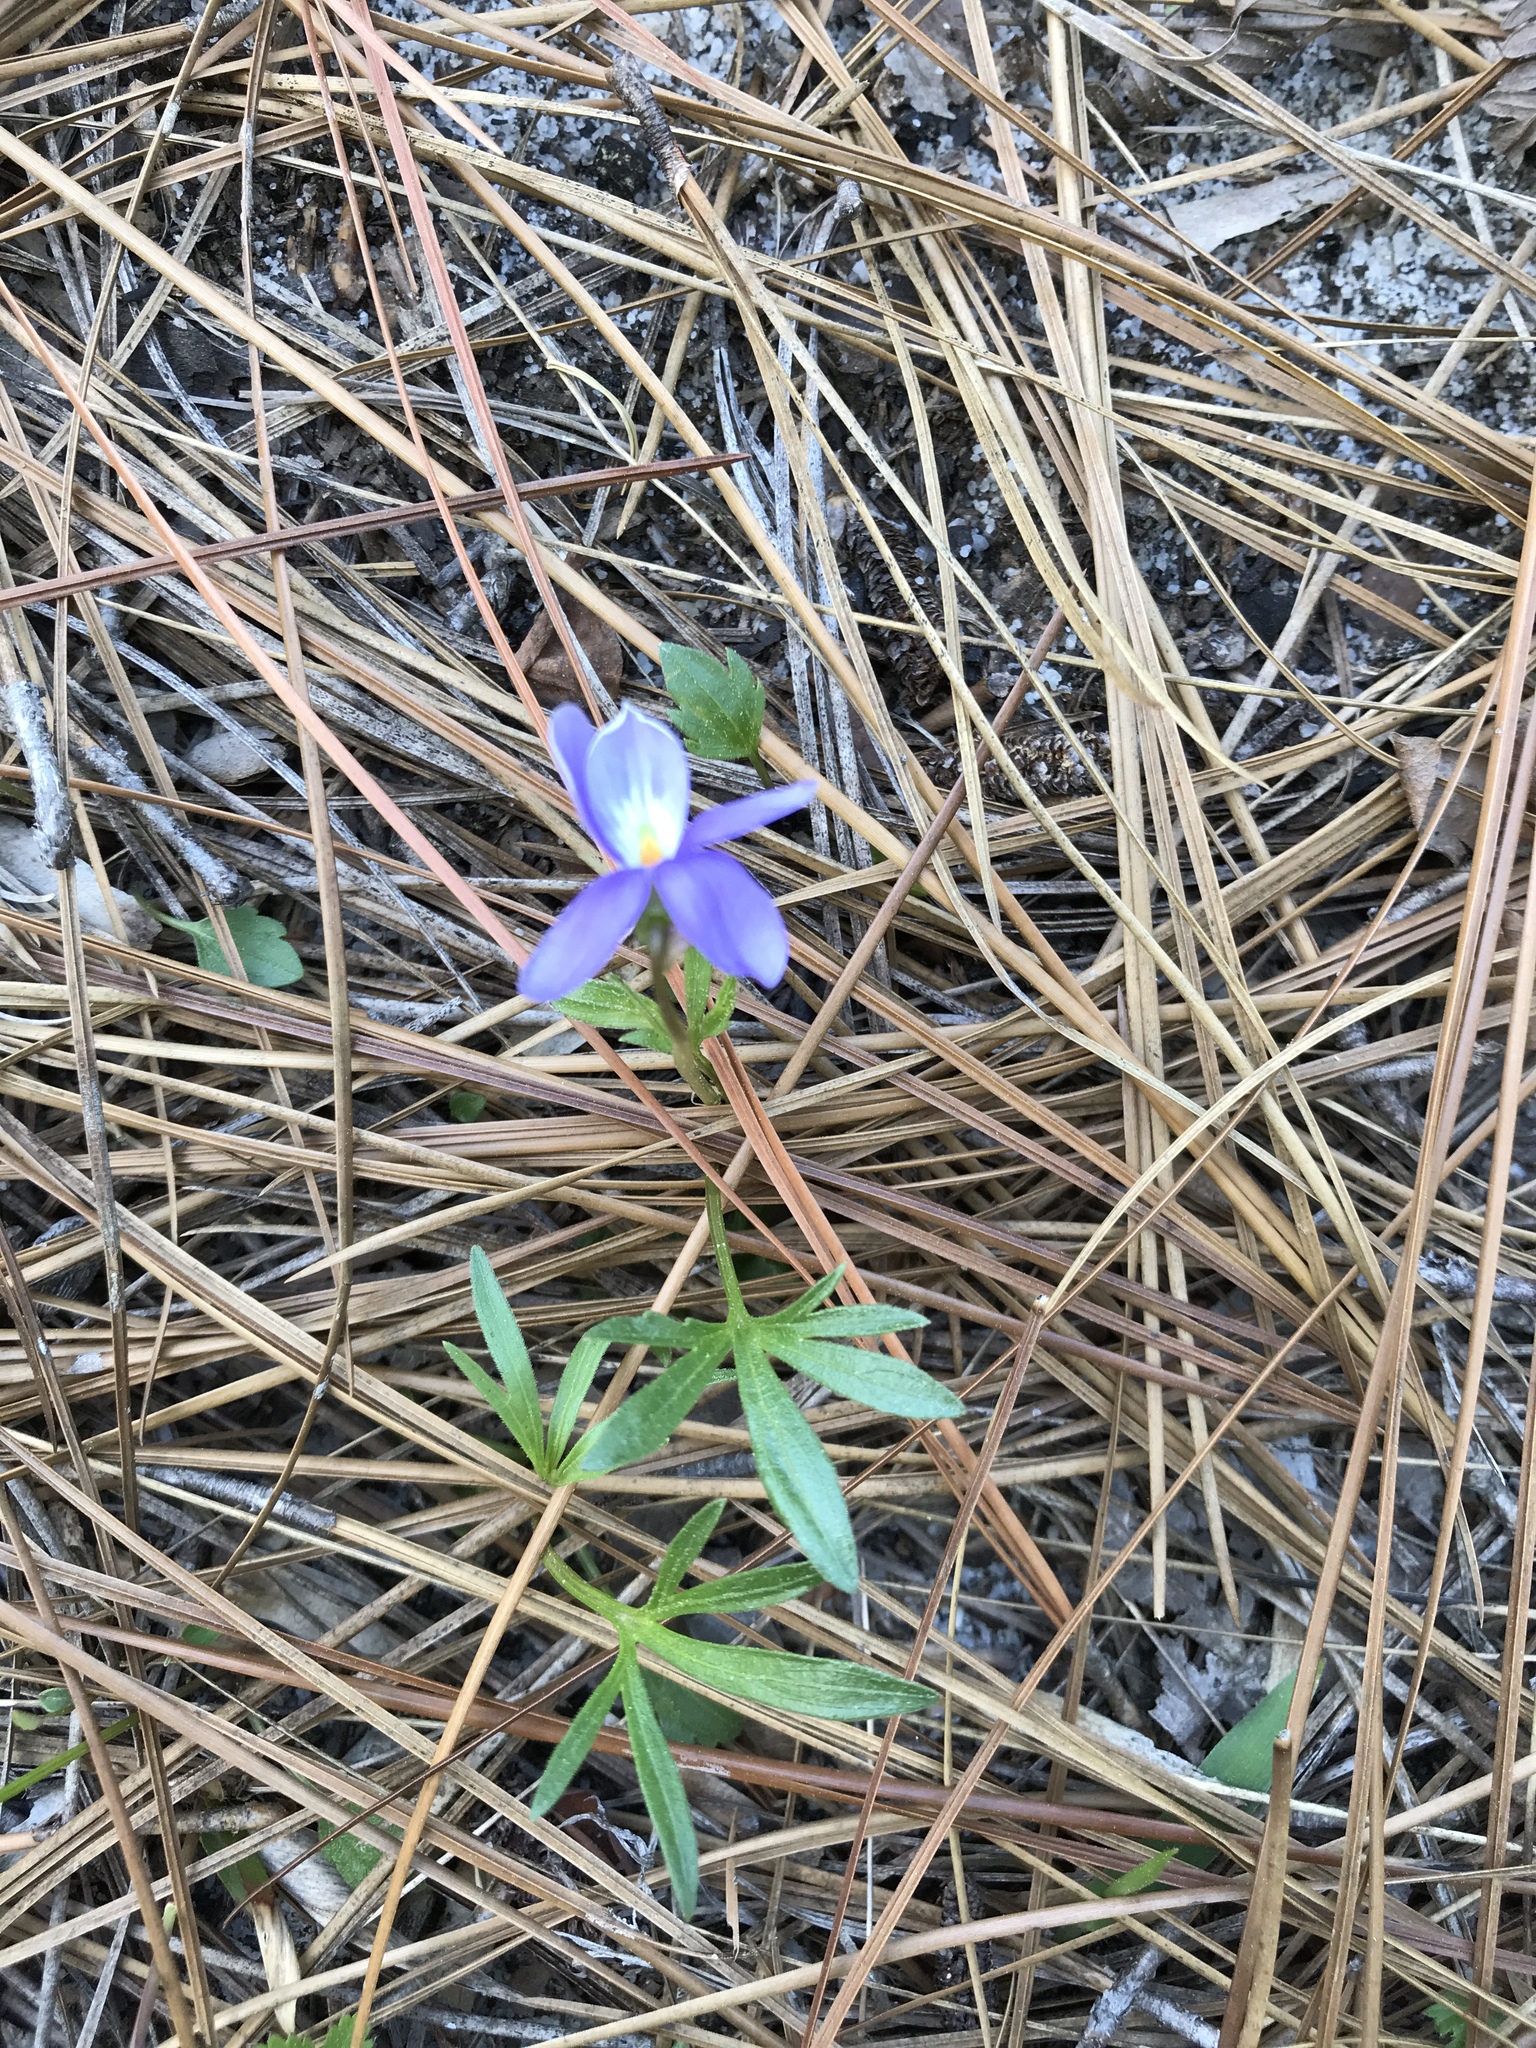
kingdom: Plantae
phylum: Tracheophyta
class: Magnoliopsida
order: Malpighiales
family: Violaceae
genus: Viola
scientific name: Viola pedata
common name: Pansy violet
